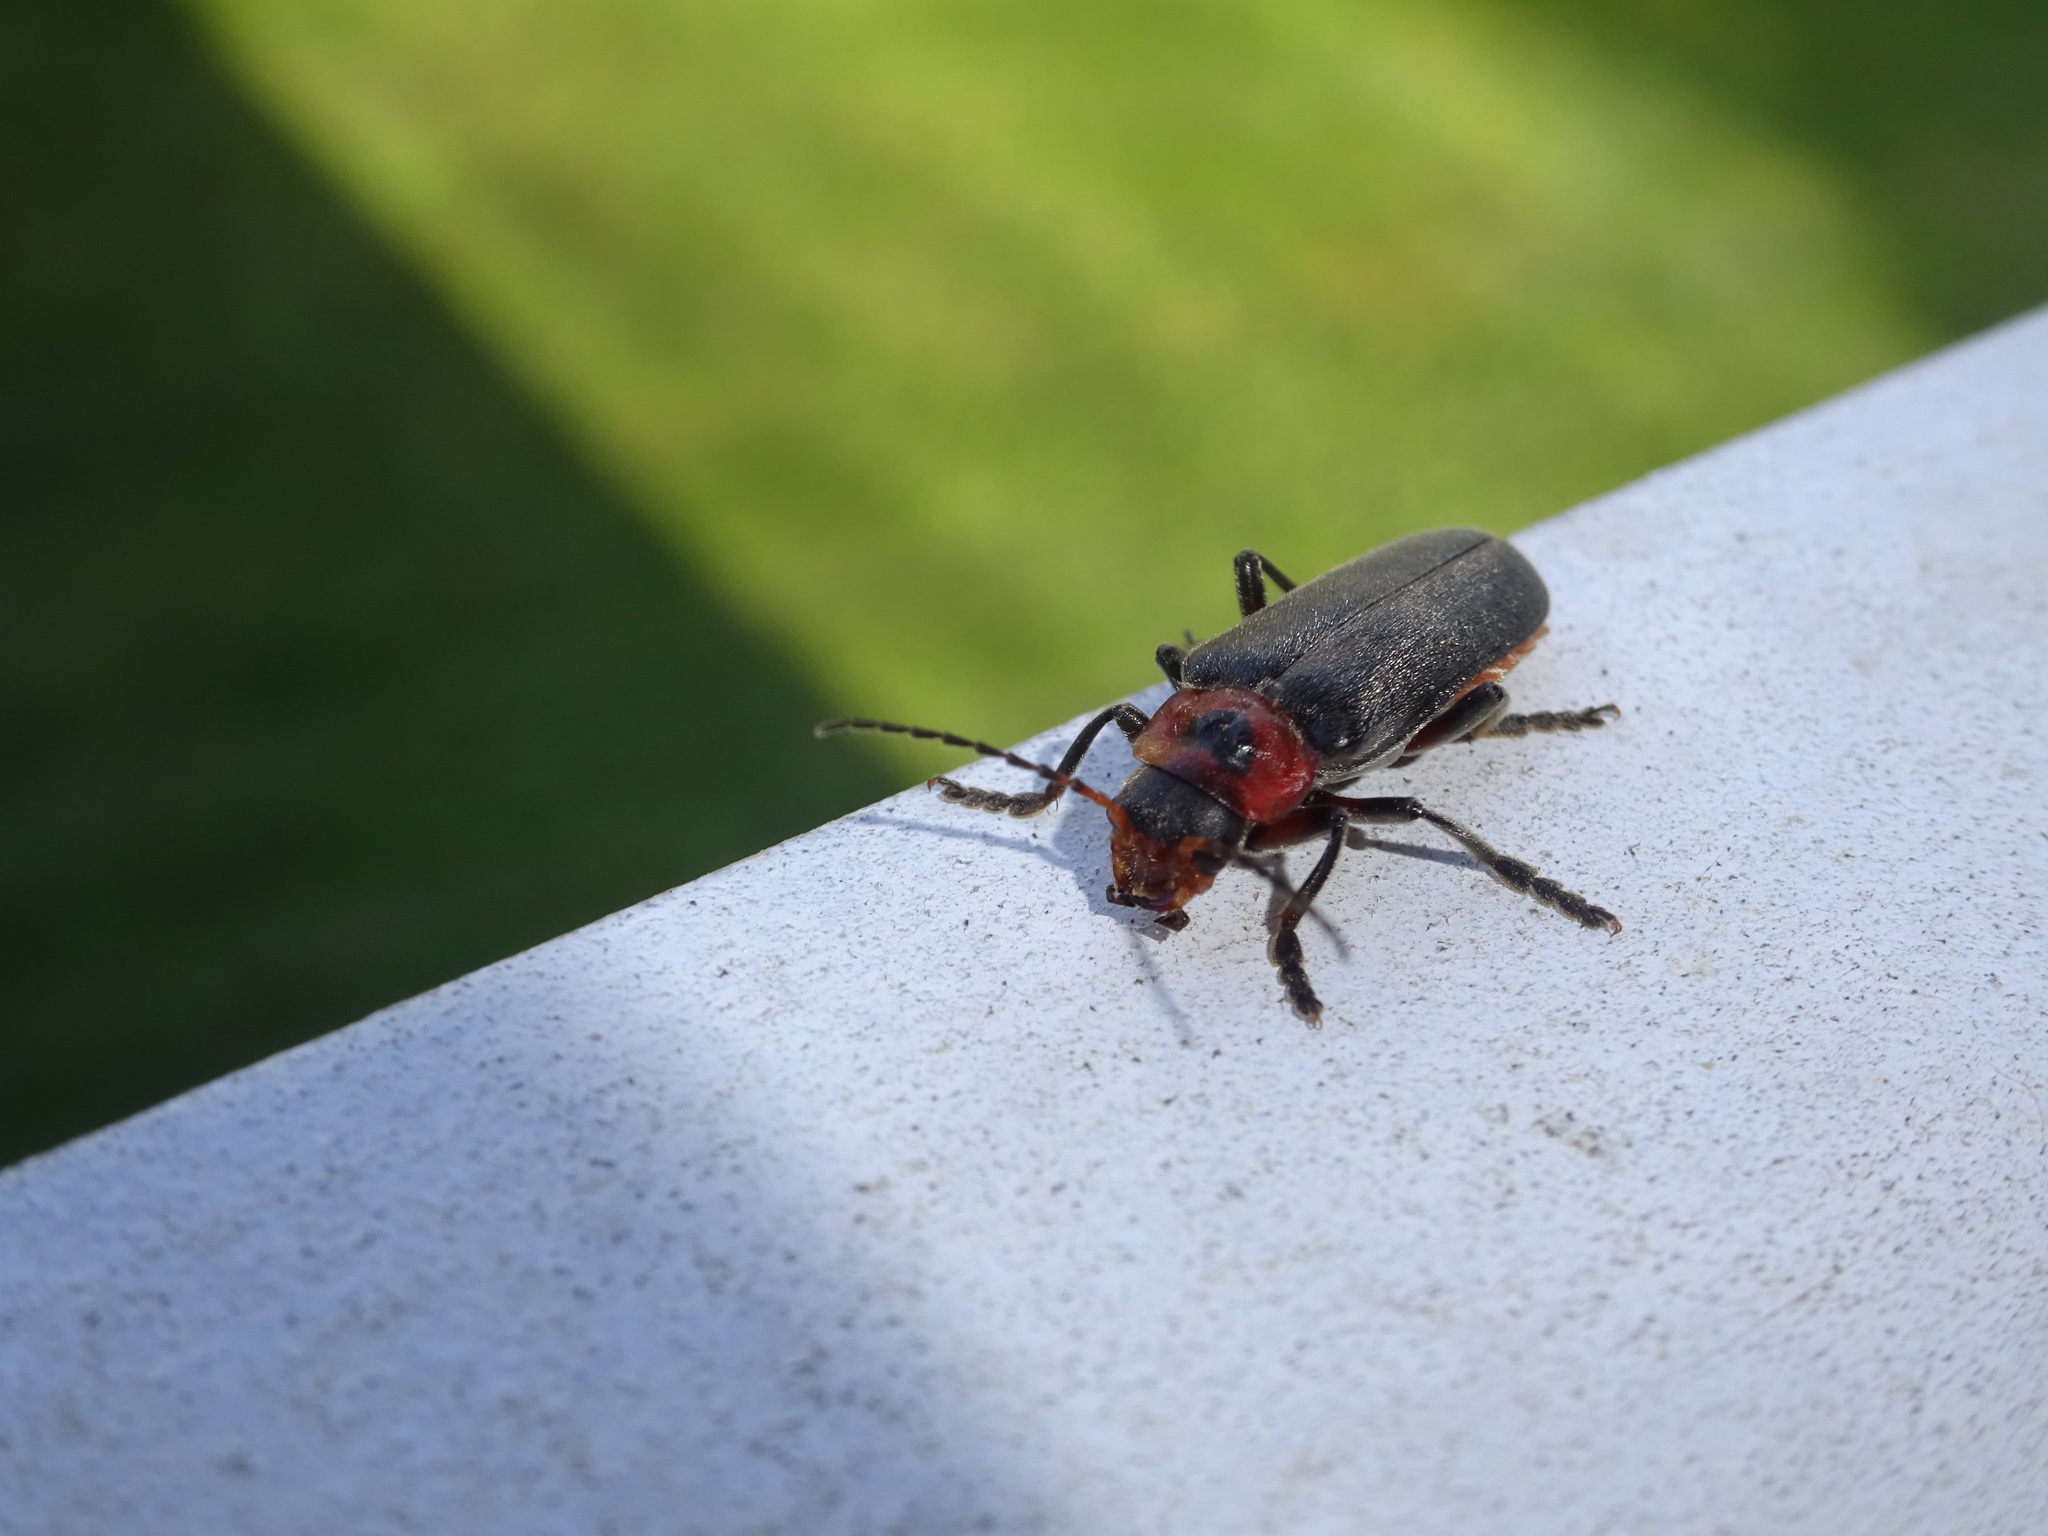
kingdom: Animalia
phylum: Arthropoda
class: Insecta
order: Coleoptera
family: Cantharidae
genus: Cantharis
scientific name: Cantharis rustica
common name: Soldier beetle
